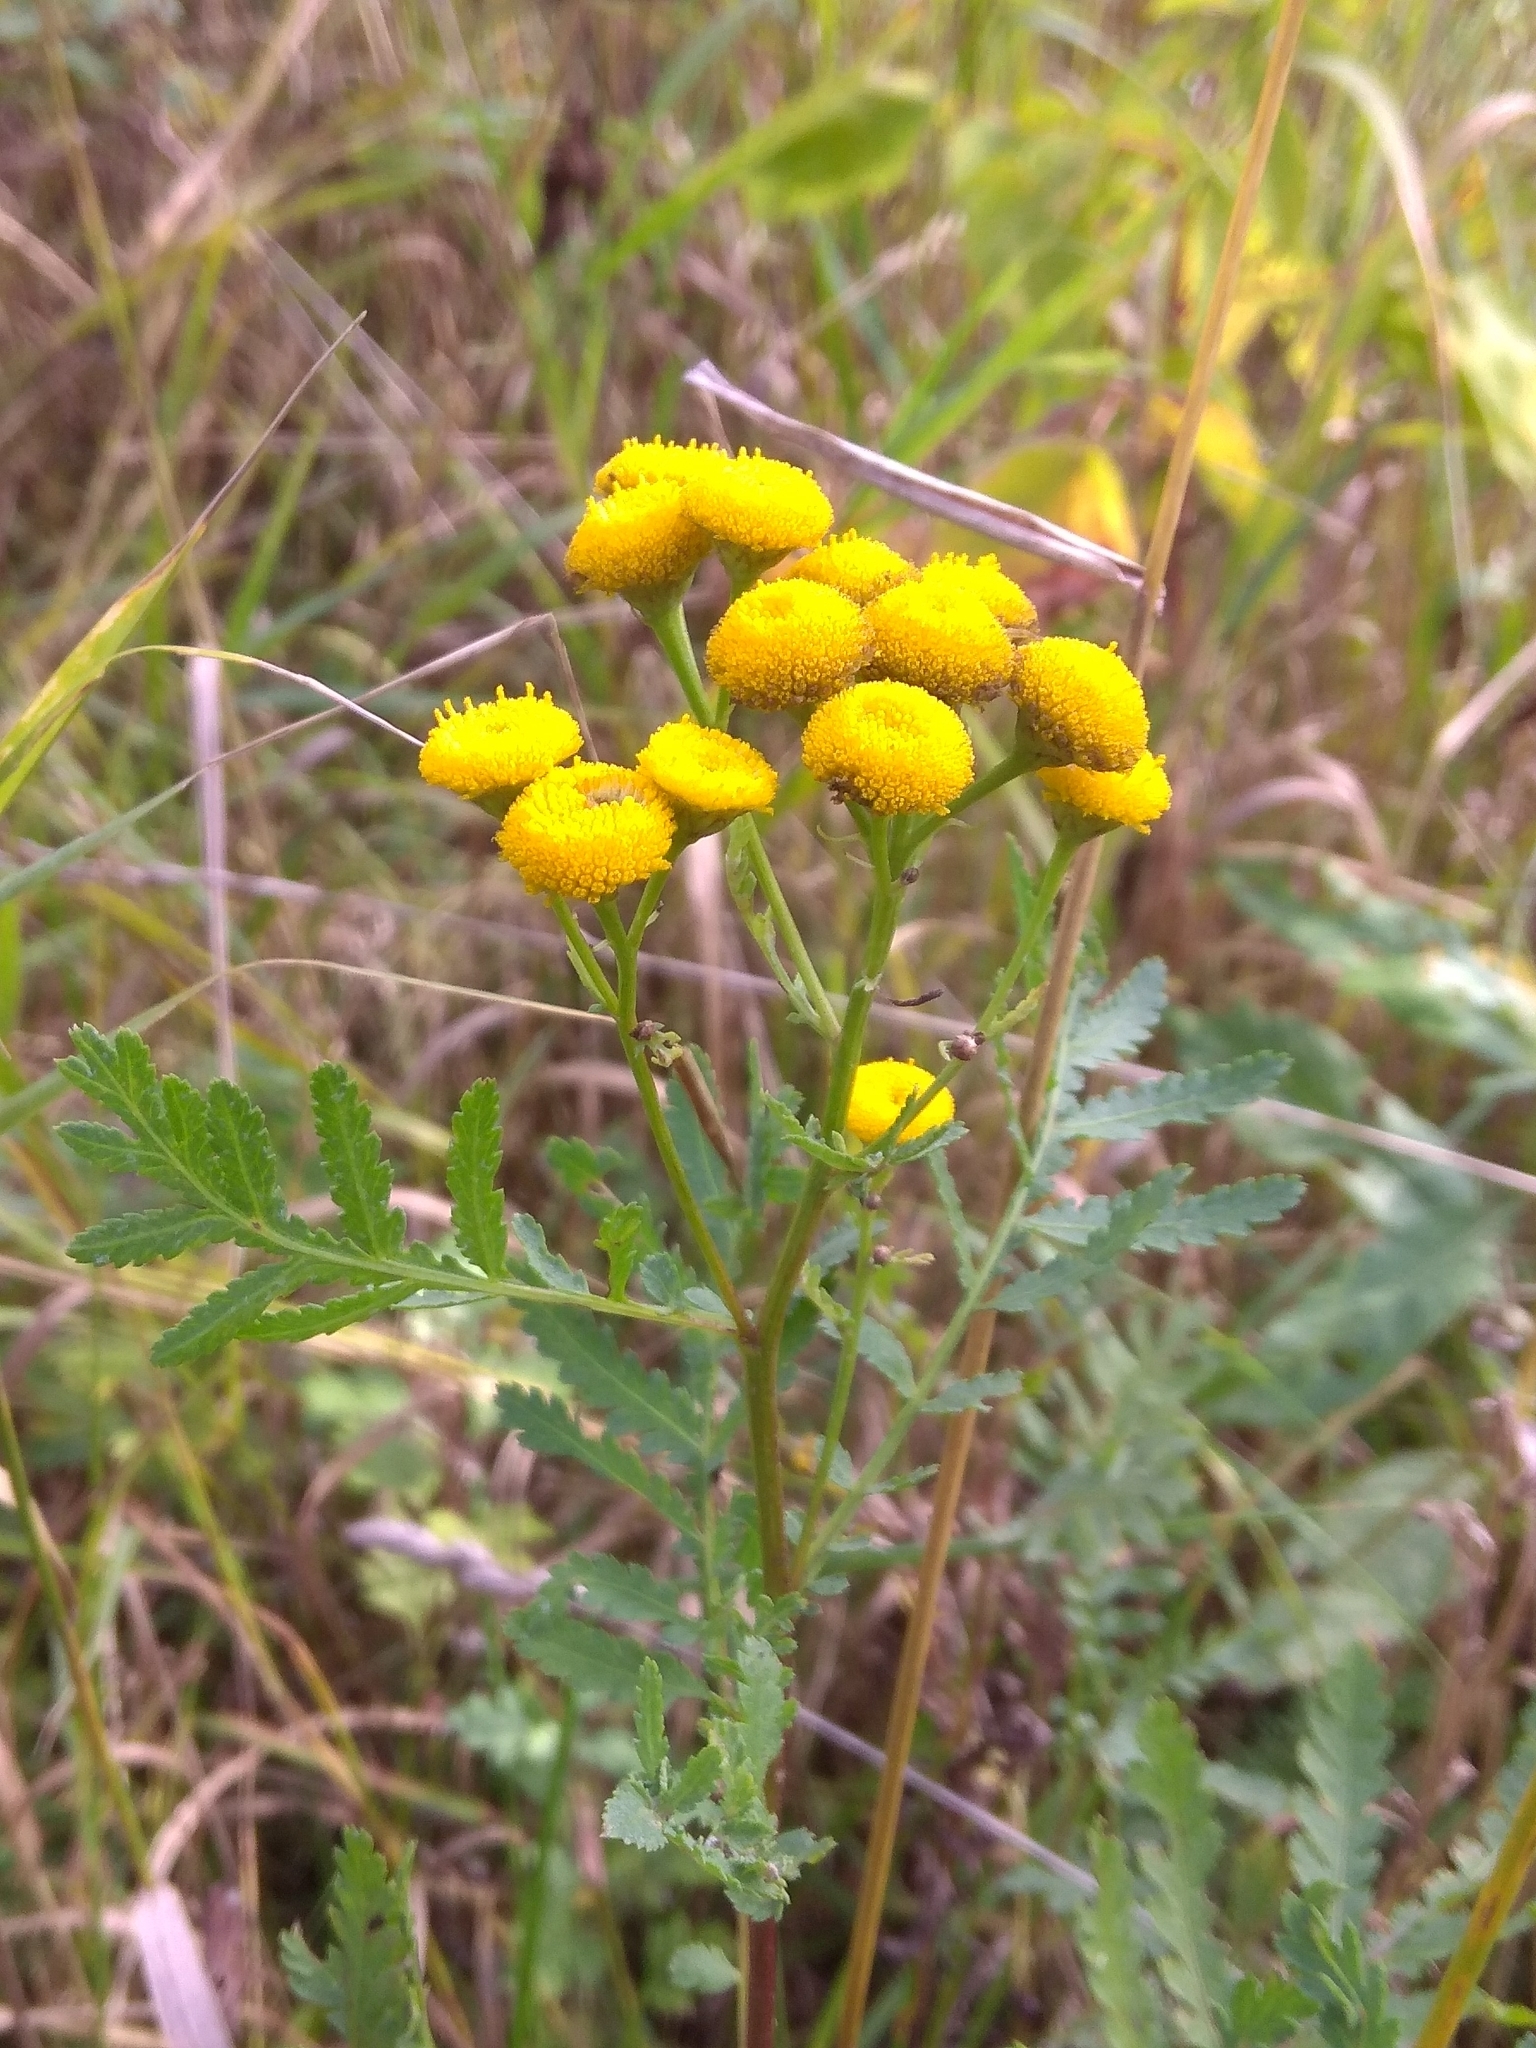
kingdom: Plantae
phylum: Tracheophyta
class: Magnoliopsida
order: Asterales
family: Asteraceae
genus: Tanacetum
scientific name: Tanacetum vulgare
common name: Common tansy
